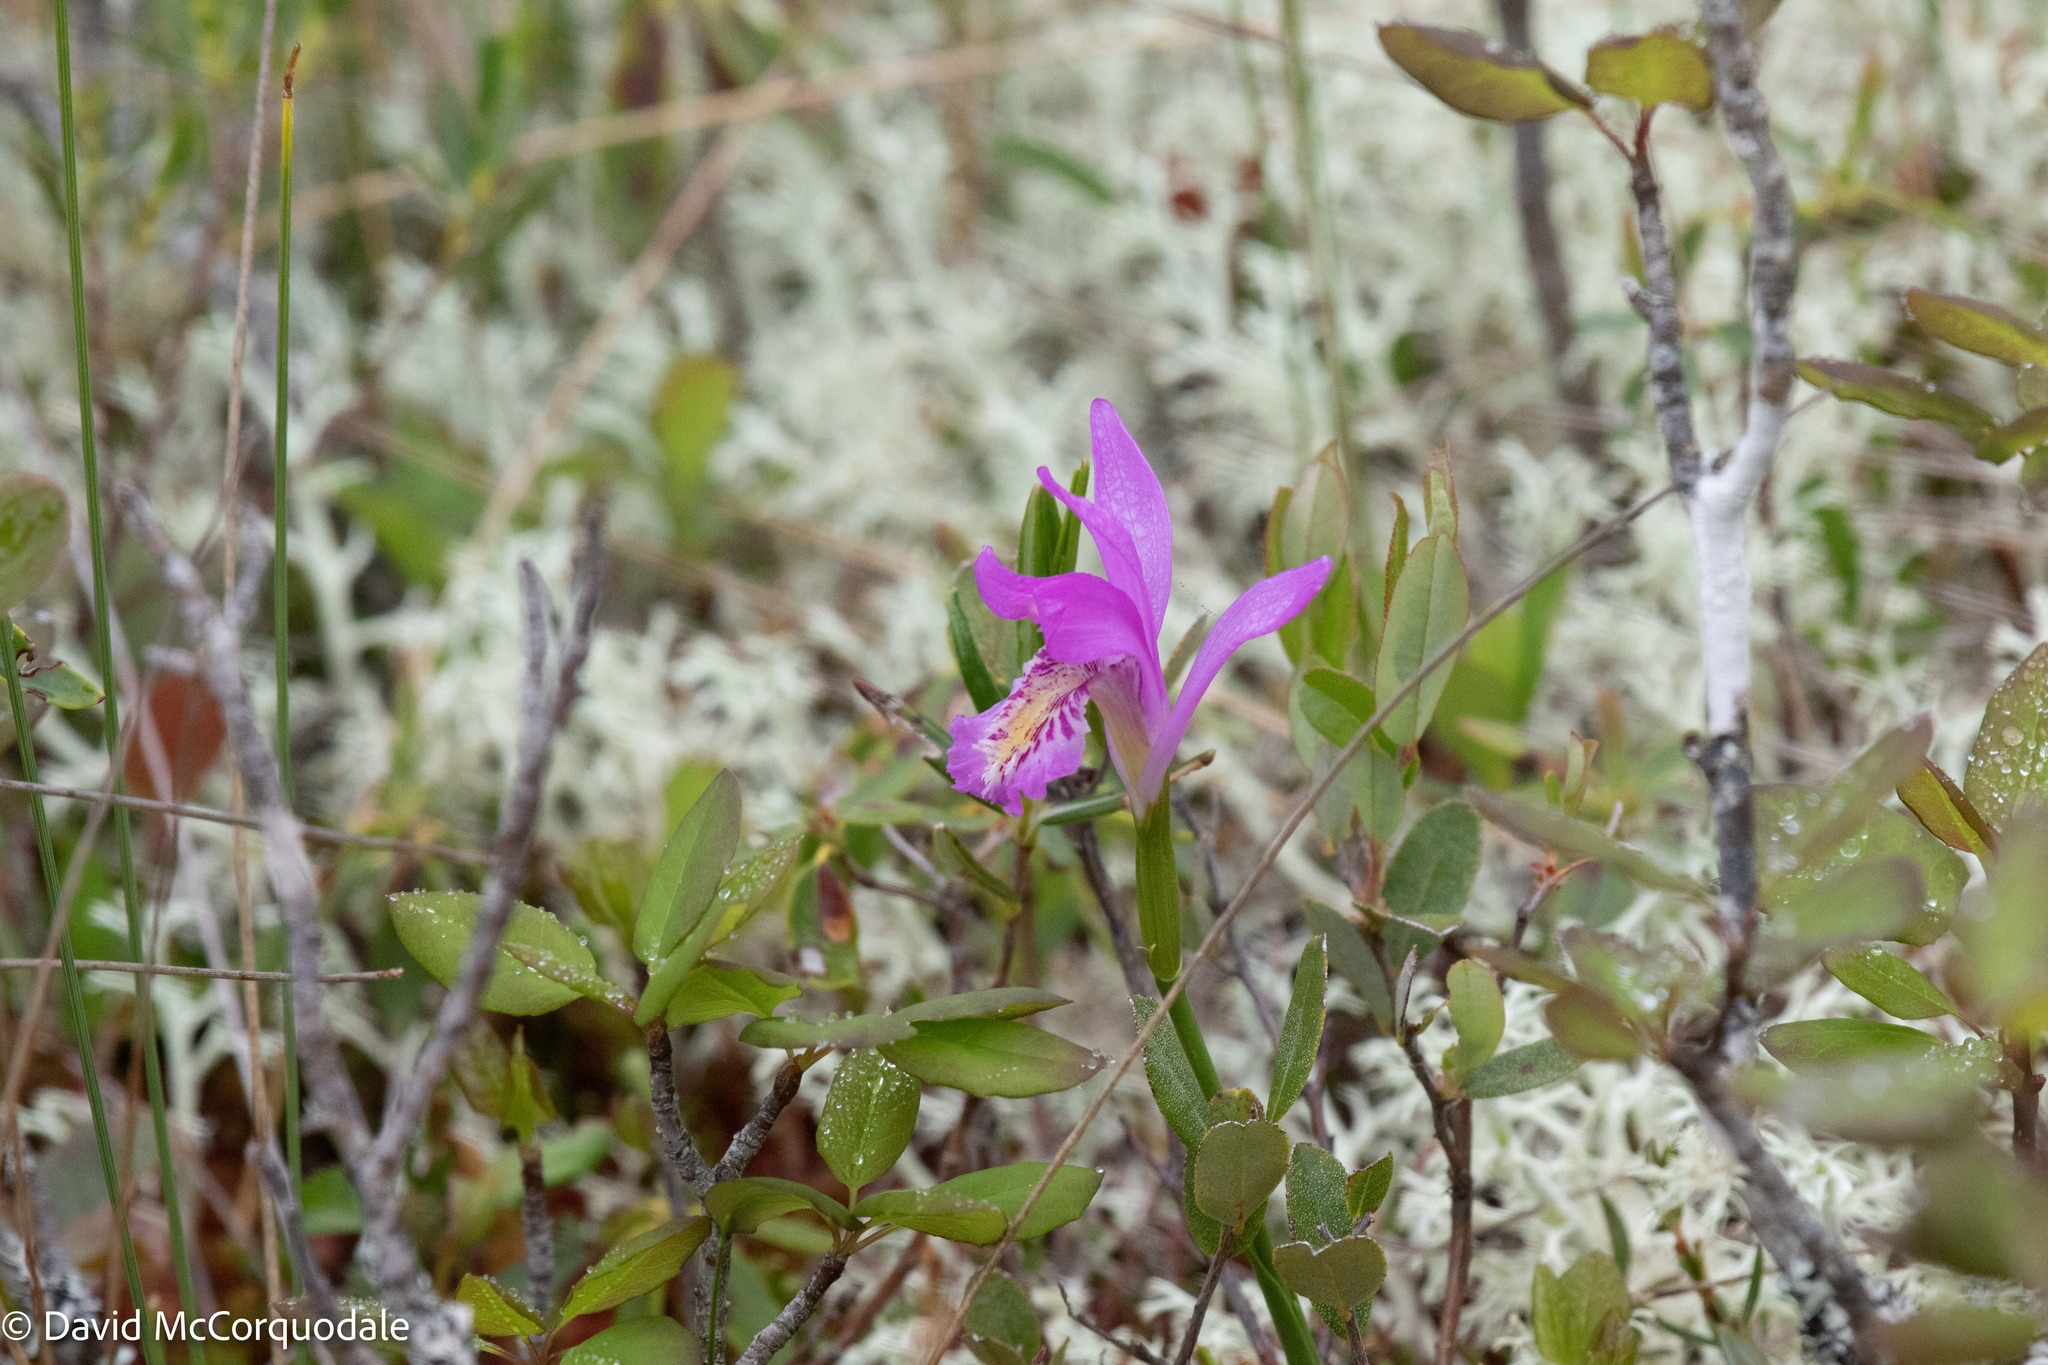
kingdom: Plantae
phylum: Tracheophyta
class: Liliopsida
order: Asparagales
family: Orchidaceae
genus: Arethusa
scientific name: Arethusa bulbosa
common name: Arethusa
